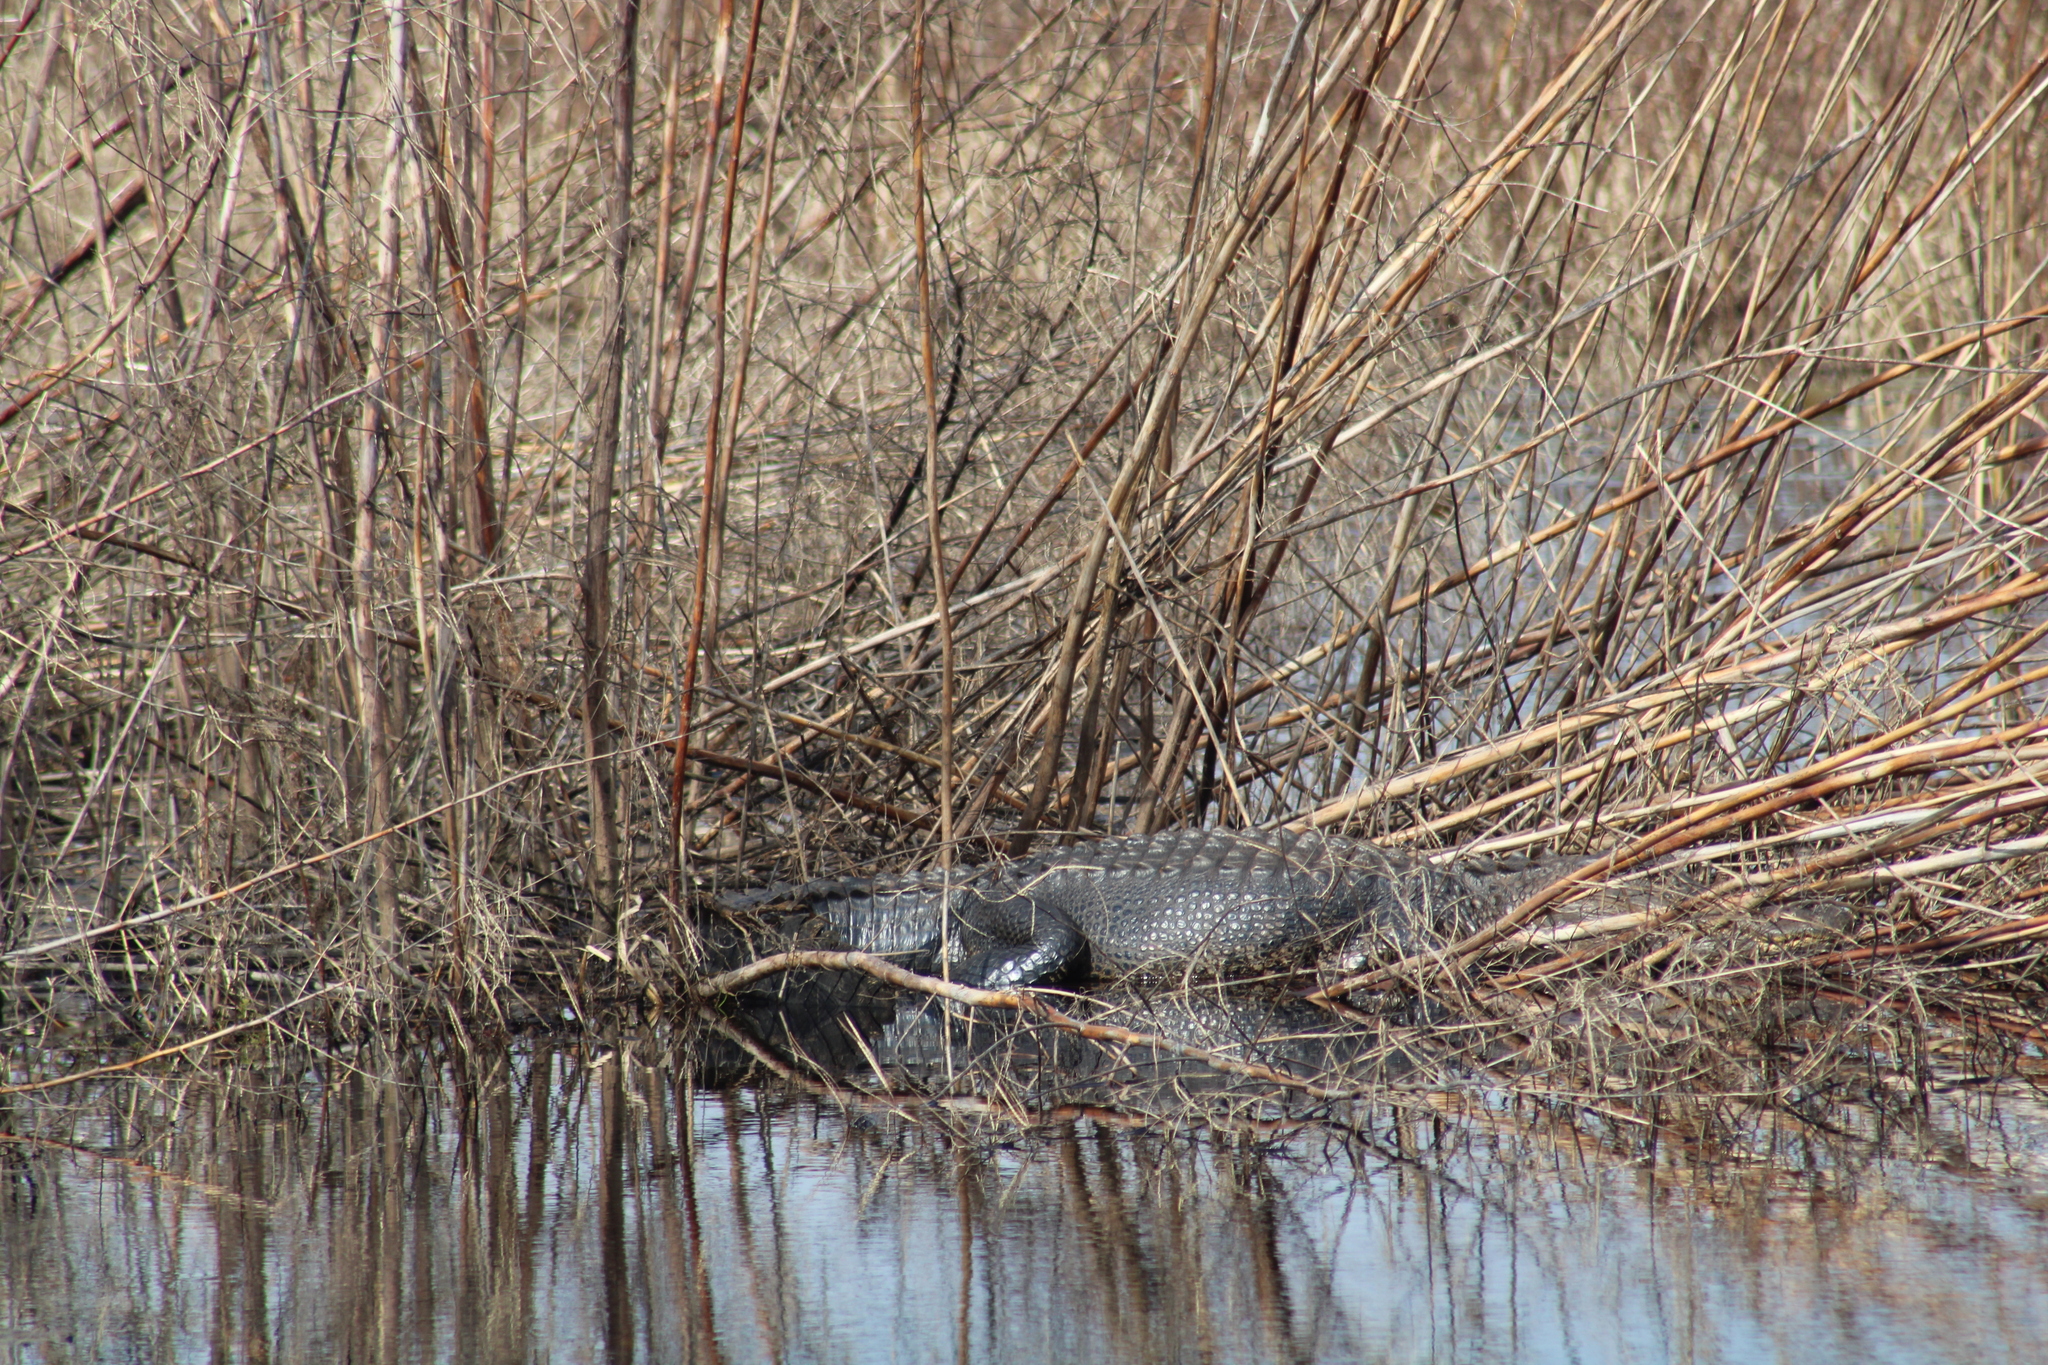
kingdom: Animalia
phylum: Chordata
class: Crocodylia
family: Alligatoridae
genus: Alligator
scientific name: Alligator mississippiensis
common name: American alligator
